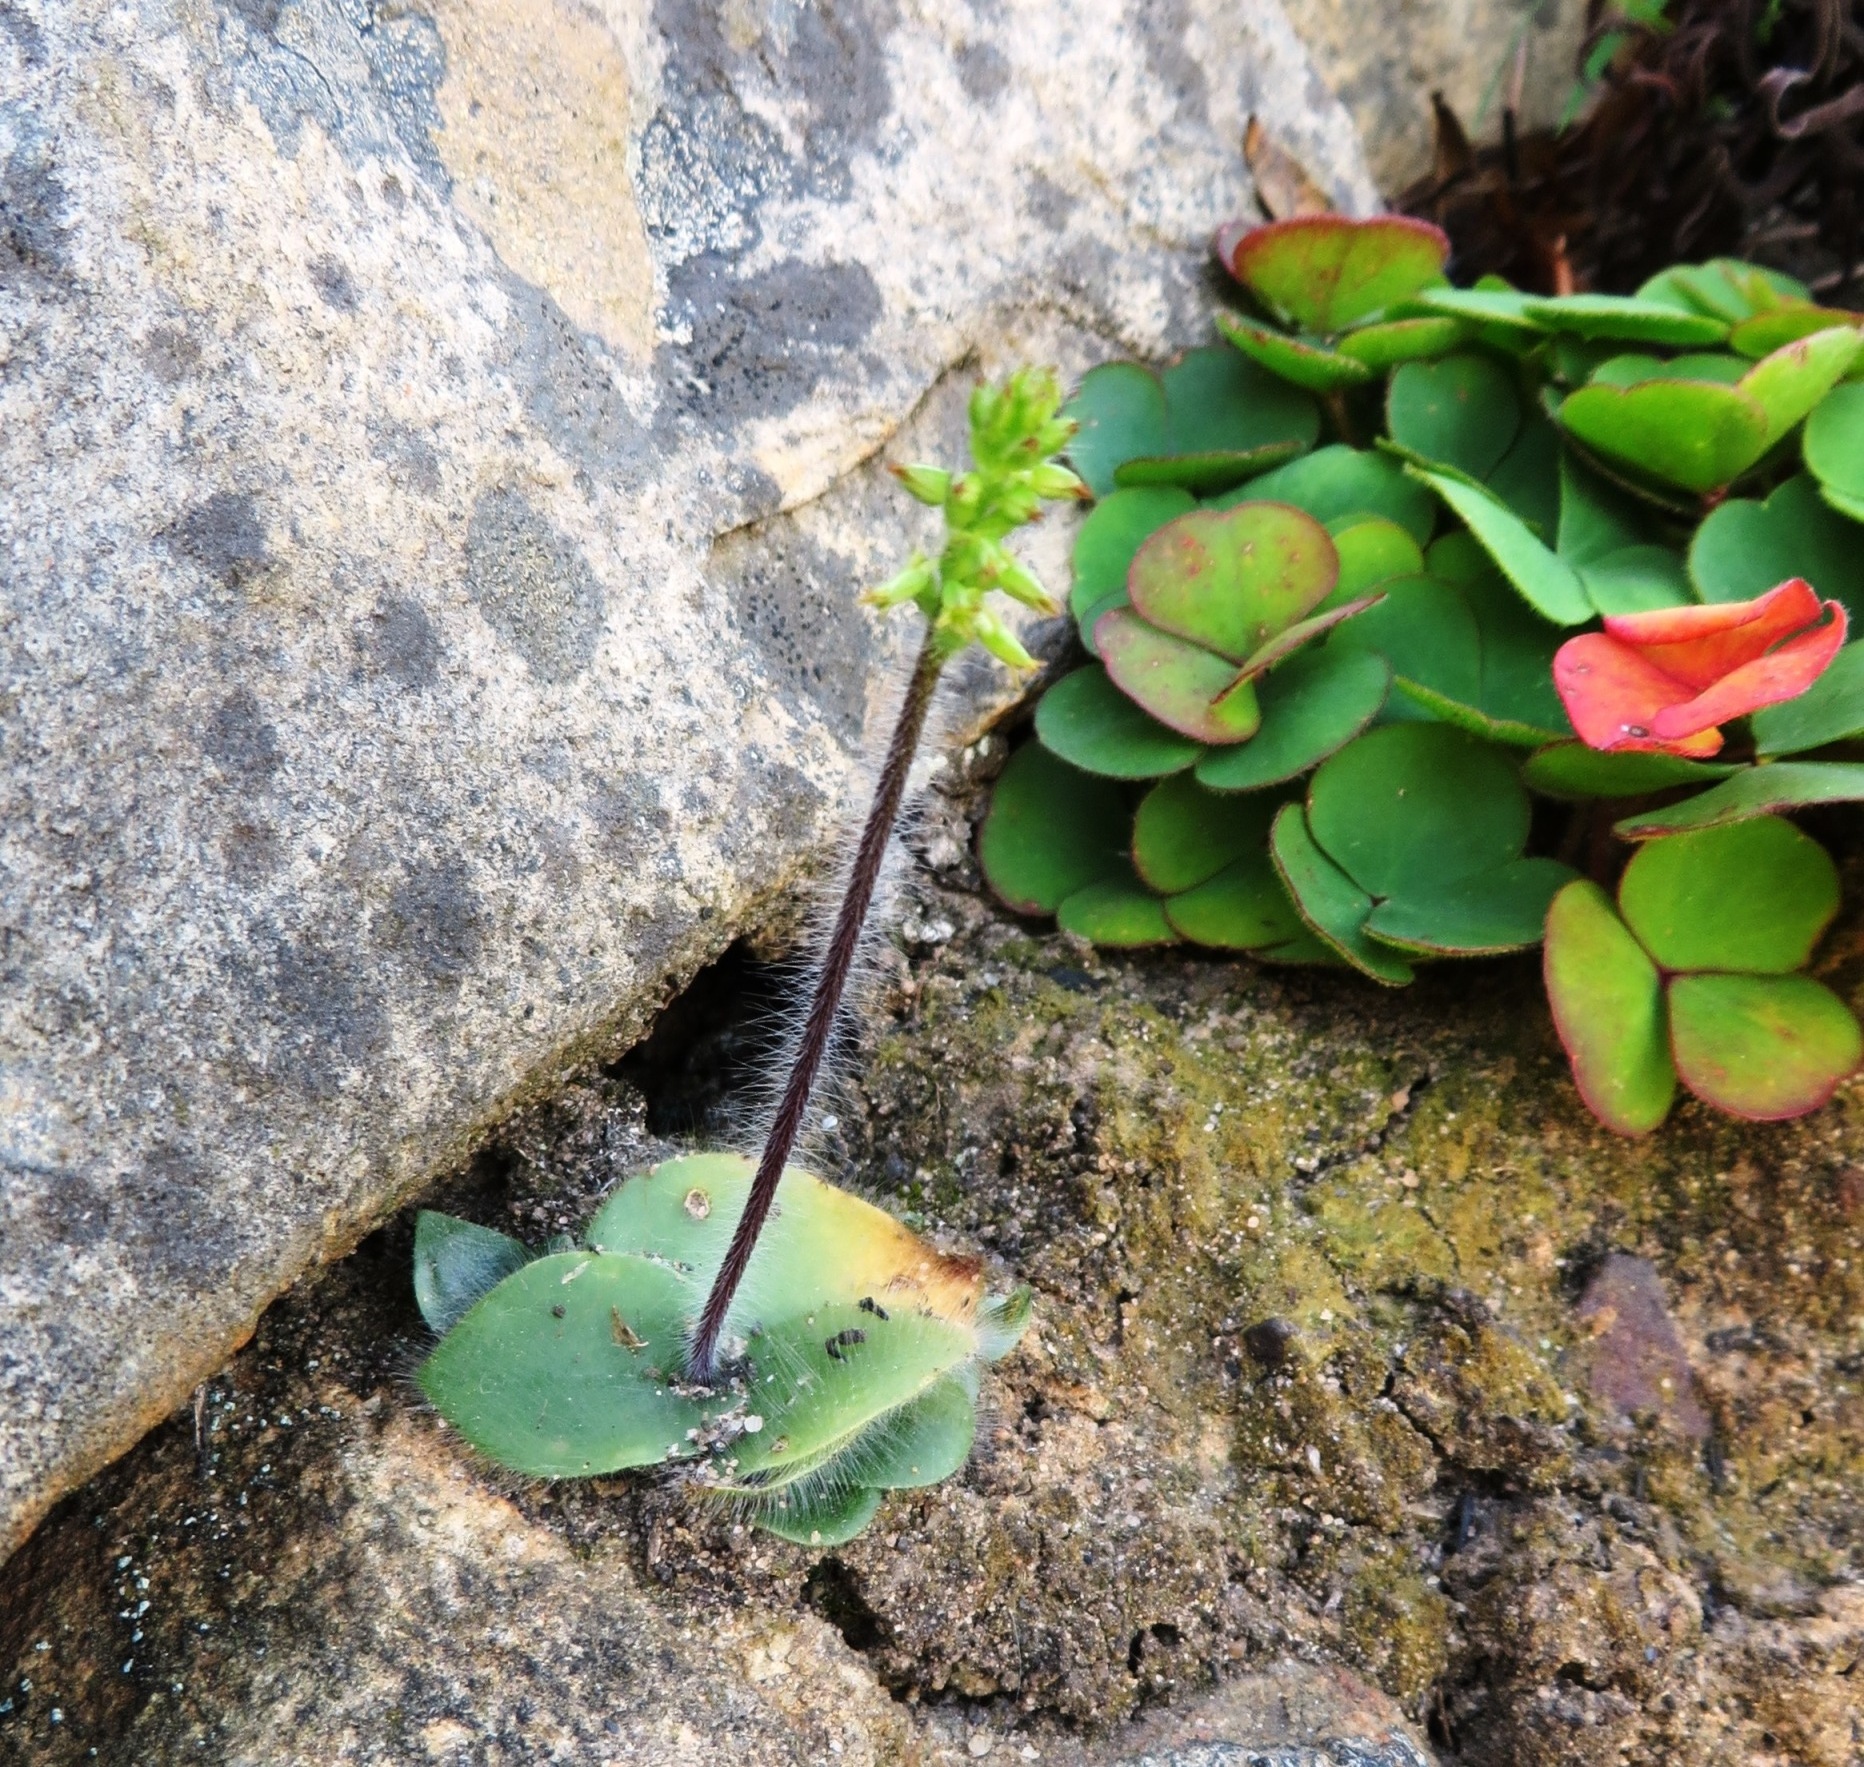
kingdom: Plantae
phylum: Tracheophyta
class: Liliopsida
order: Asparagales
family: Orchidaceae
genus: Holothrix
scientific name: Holothrix villosa
